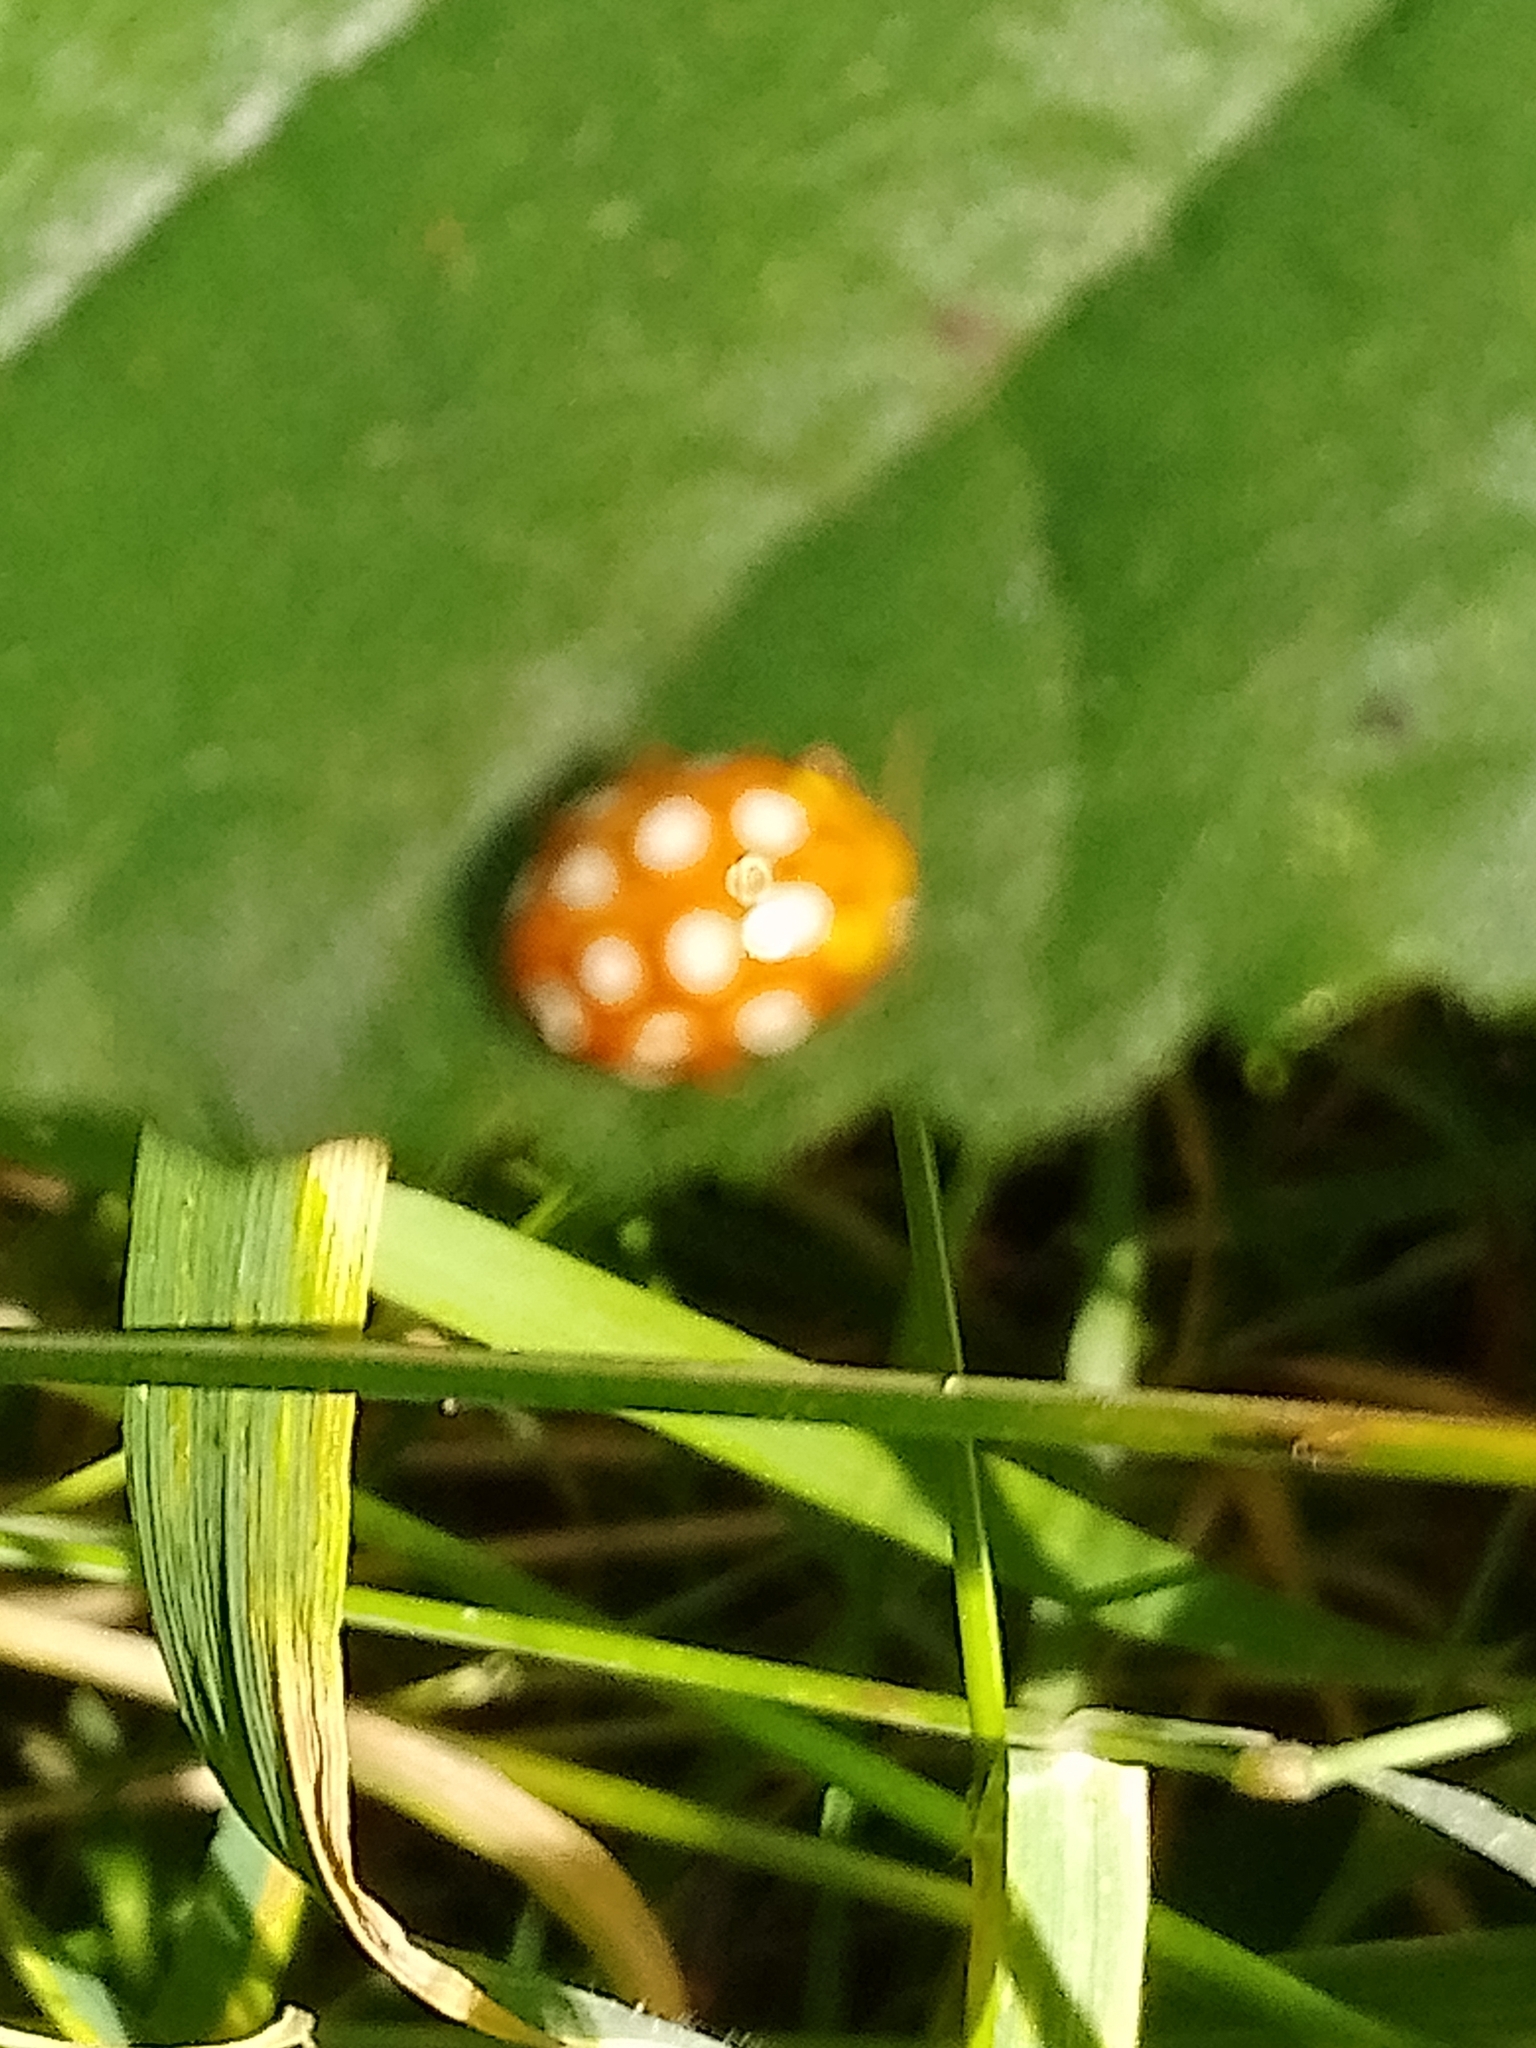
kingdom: Animalia
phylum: Arthropoda
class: Insecta
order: Coleoptera
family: Coccinellidae
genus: Halyzia
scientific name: Halyzia sedecimguttata
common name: Orange ladybird
